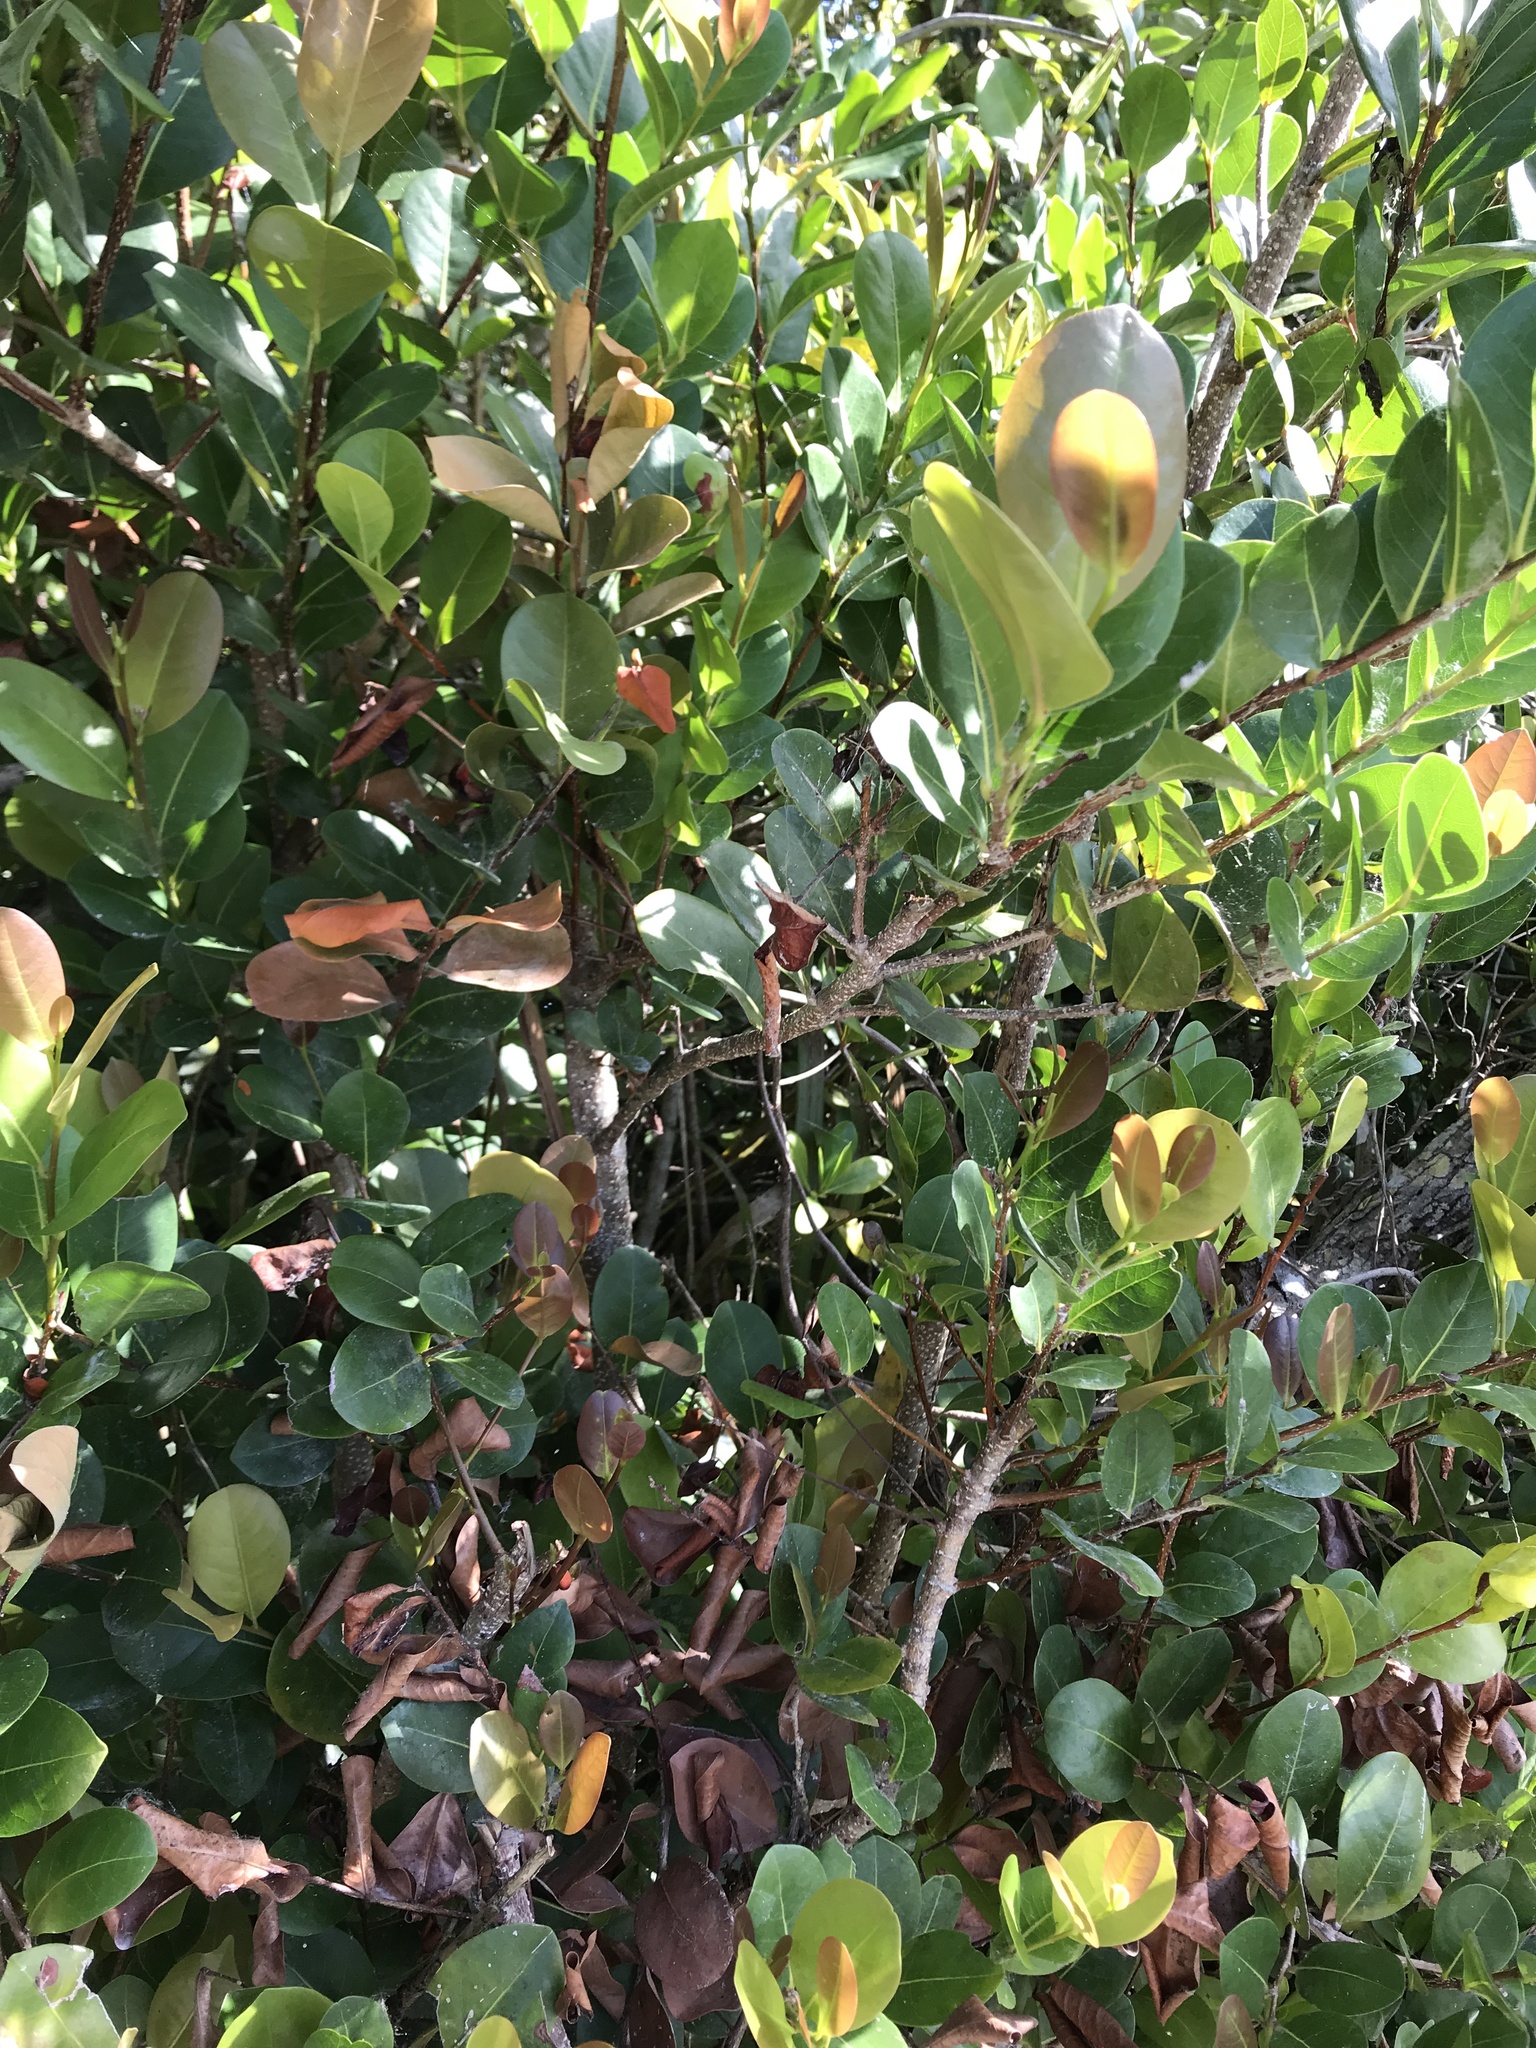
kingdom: Plantae
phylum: Tracheophyta
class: Magnoliopsida
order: Malpighiales
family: Chrysobalanaceae
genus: Chrysobalanus
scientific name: Chrysobalanus icaco
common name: Coco plum
